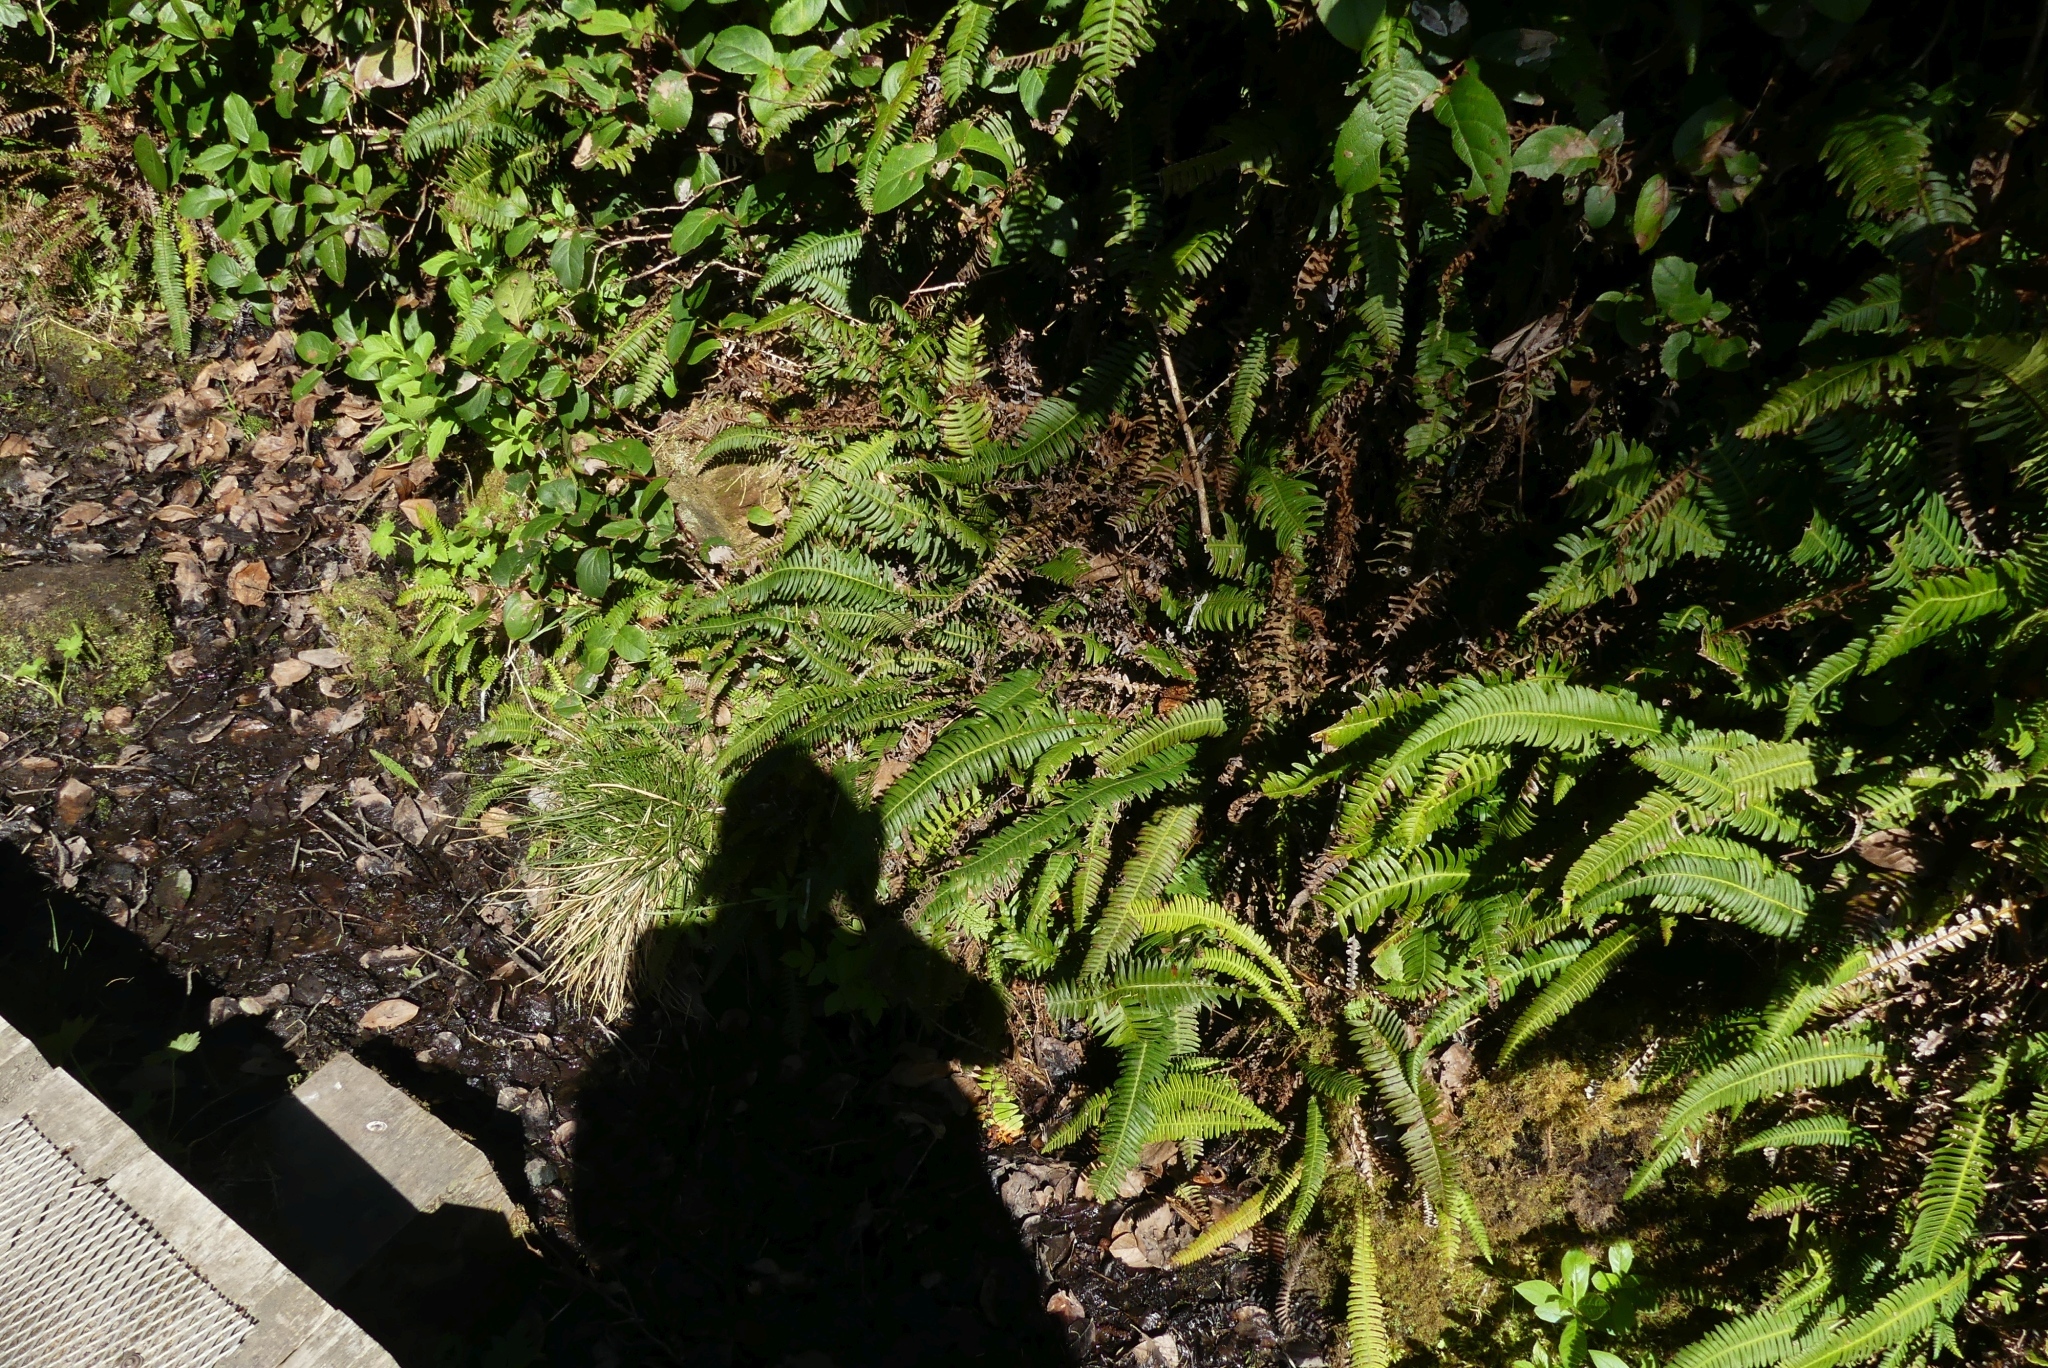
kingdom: Plantae
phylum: Tracheophyta
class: Polypodiopsida
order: Polypodiales
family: Blechnaceae
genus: Struthiopteris
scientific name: Struthiopteris spicant
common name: Deer fern
